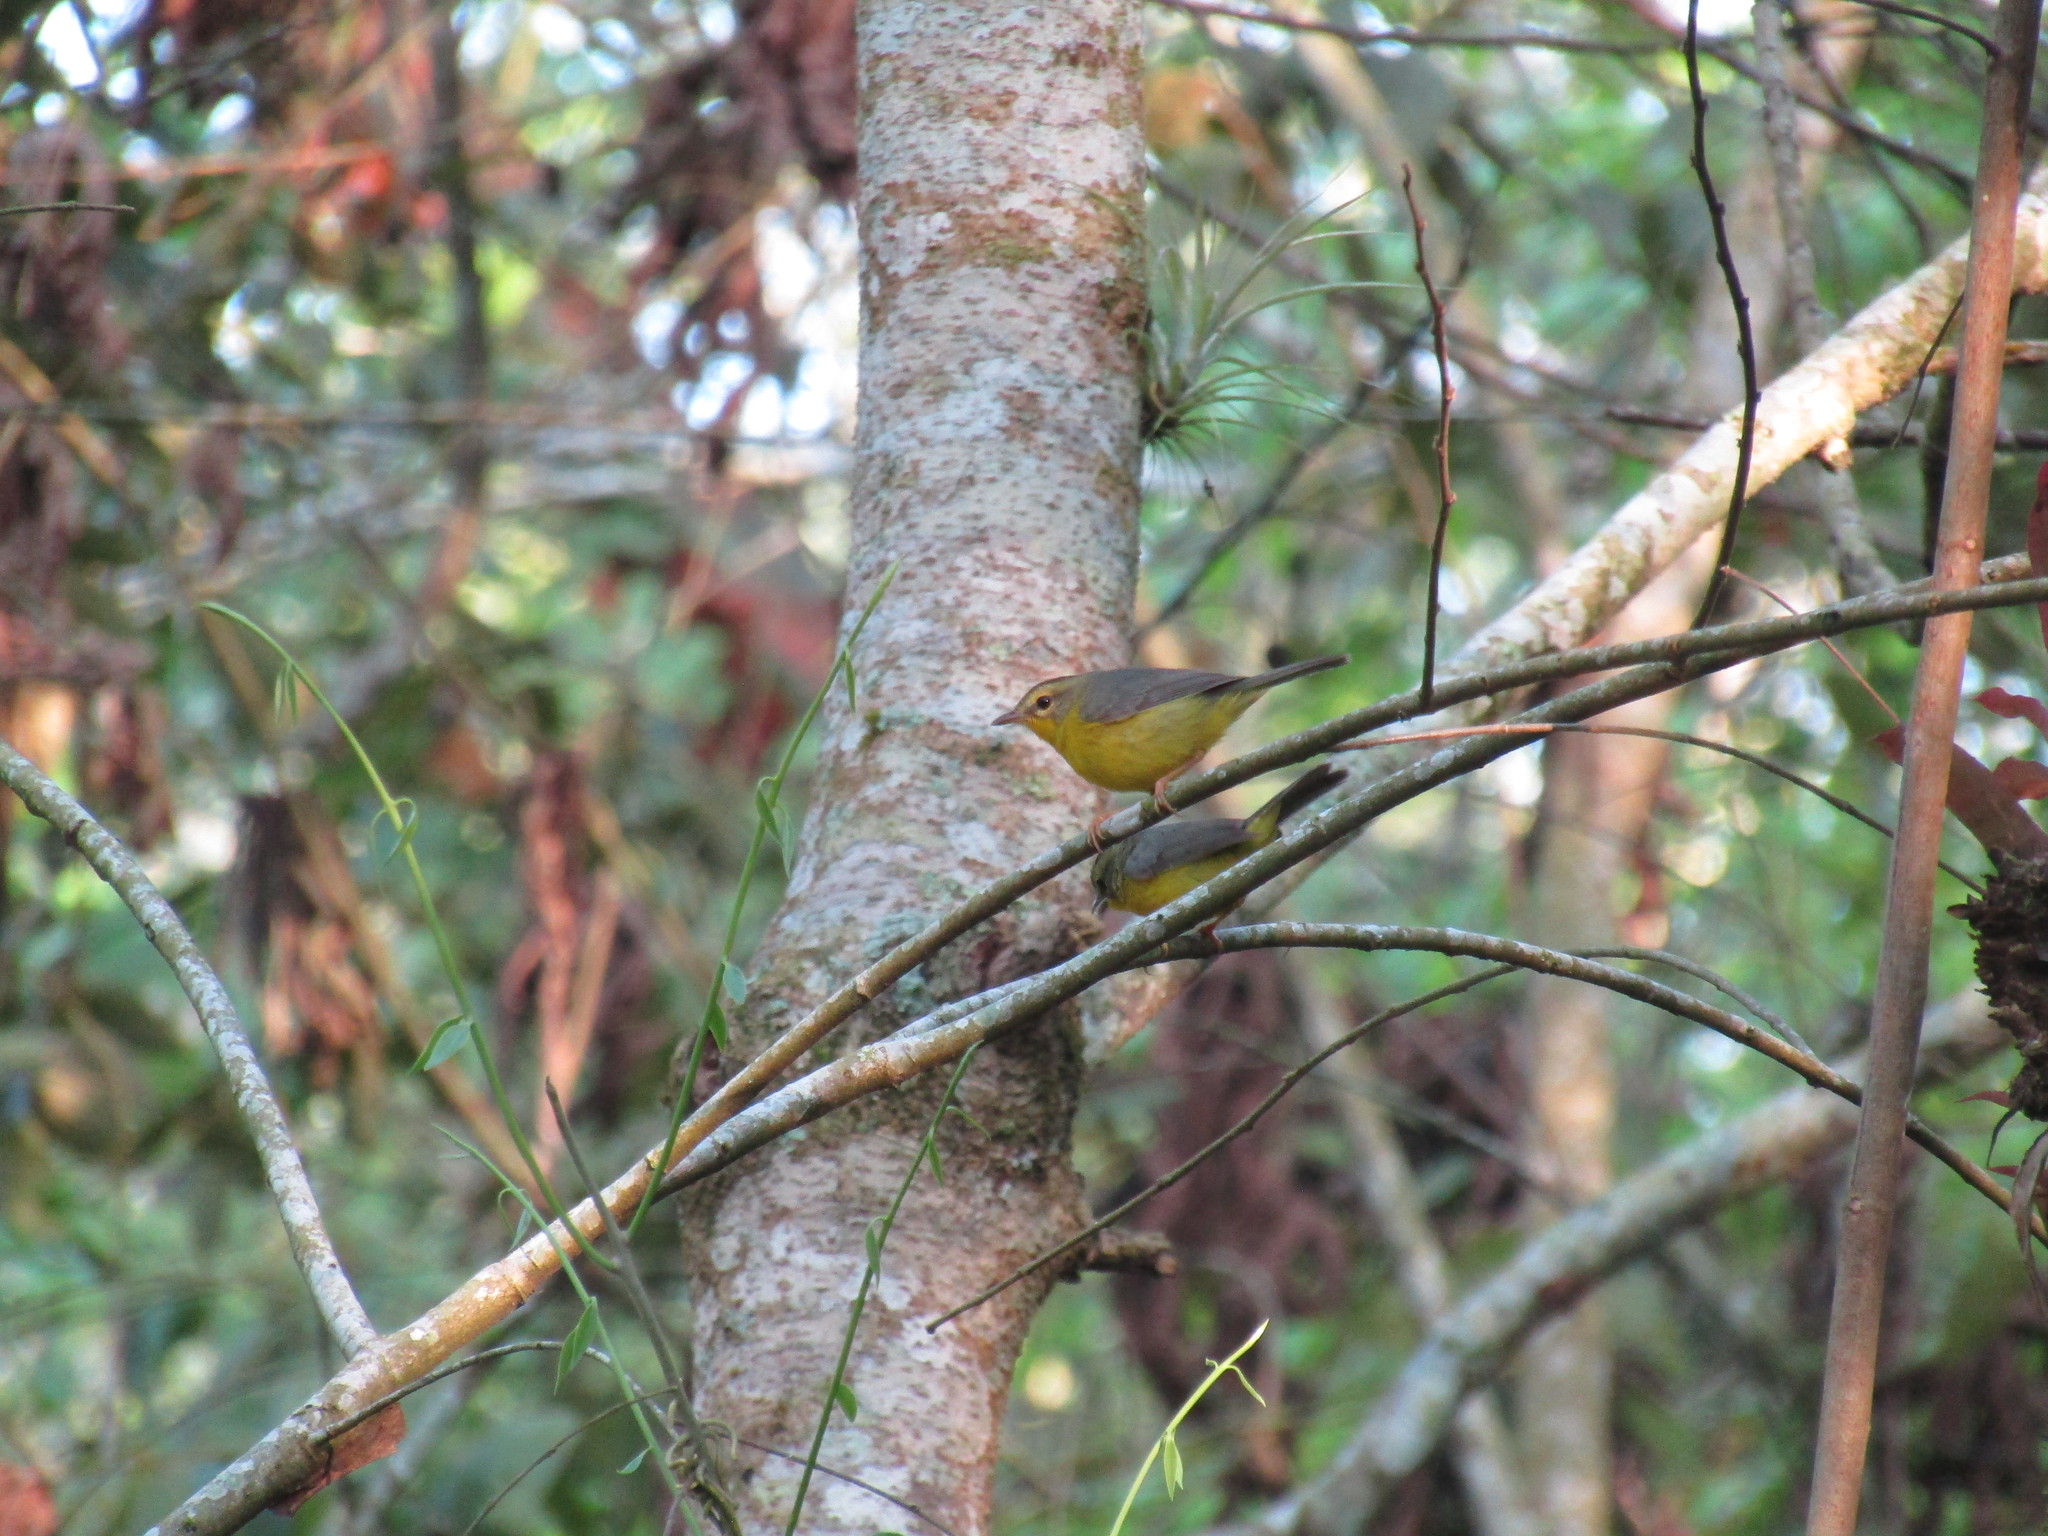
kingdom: Animalia
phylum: Chordata
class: Aves
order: Passeriformes
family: Parulidae
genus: Basileuterus
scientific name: Basileuterus culicivorus
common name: Golden-crowned warbler
